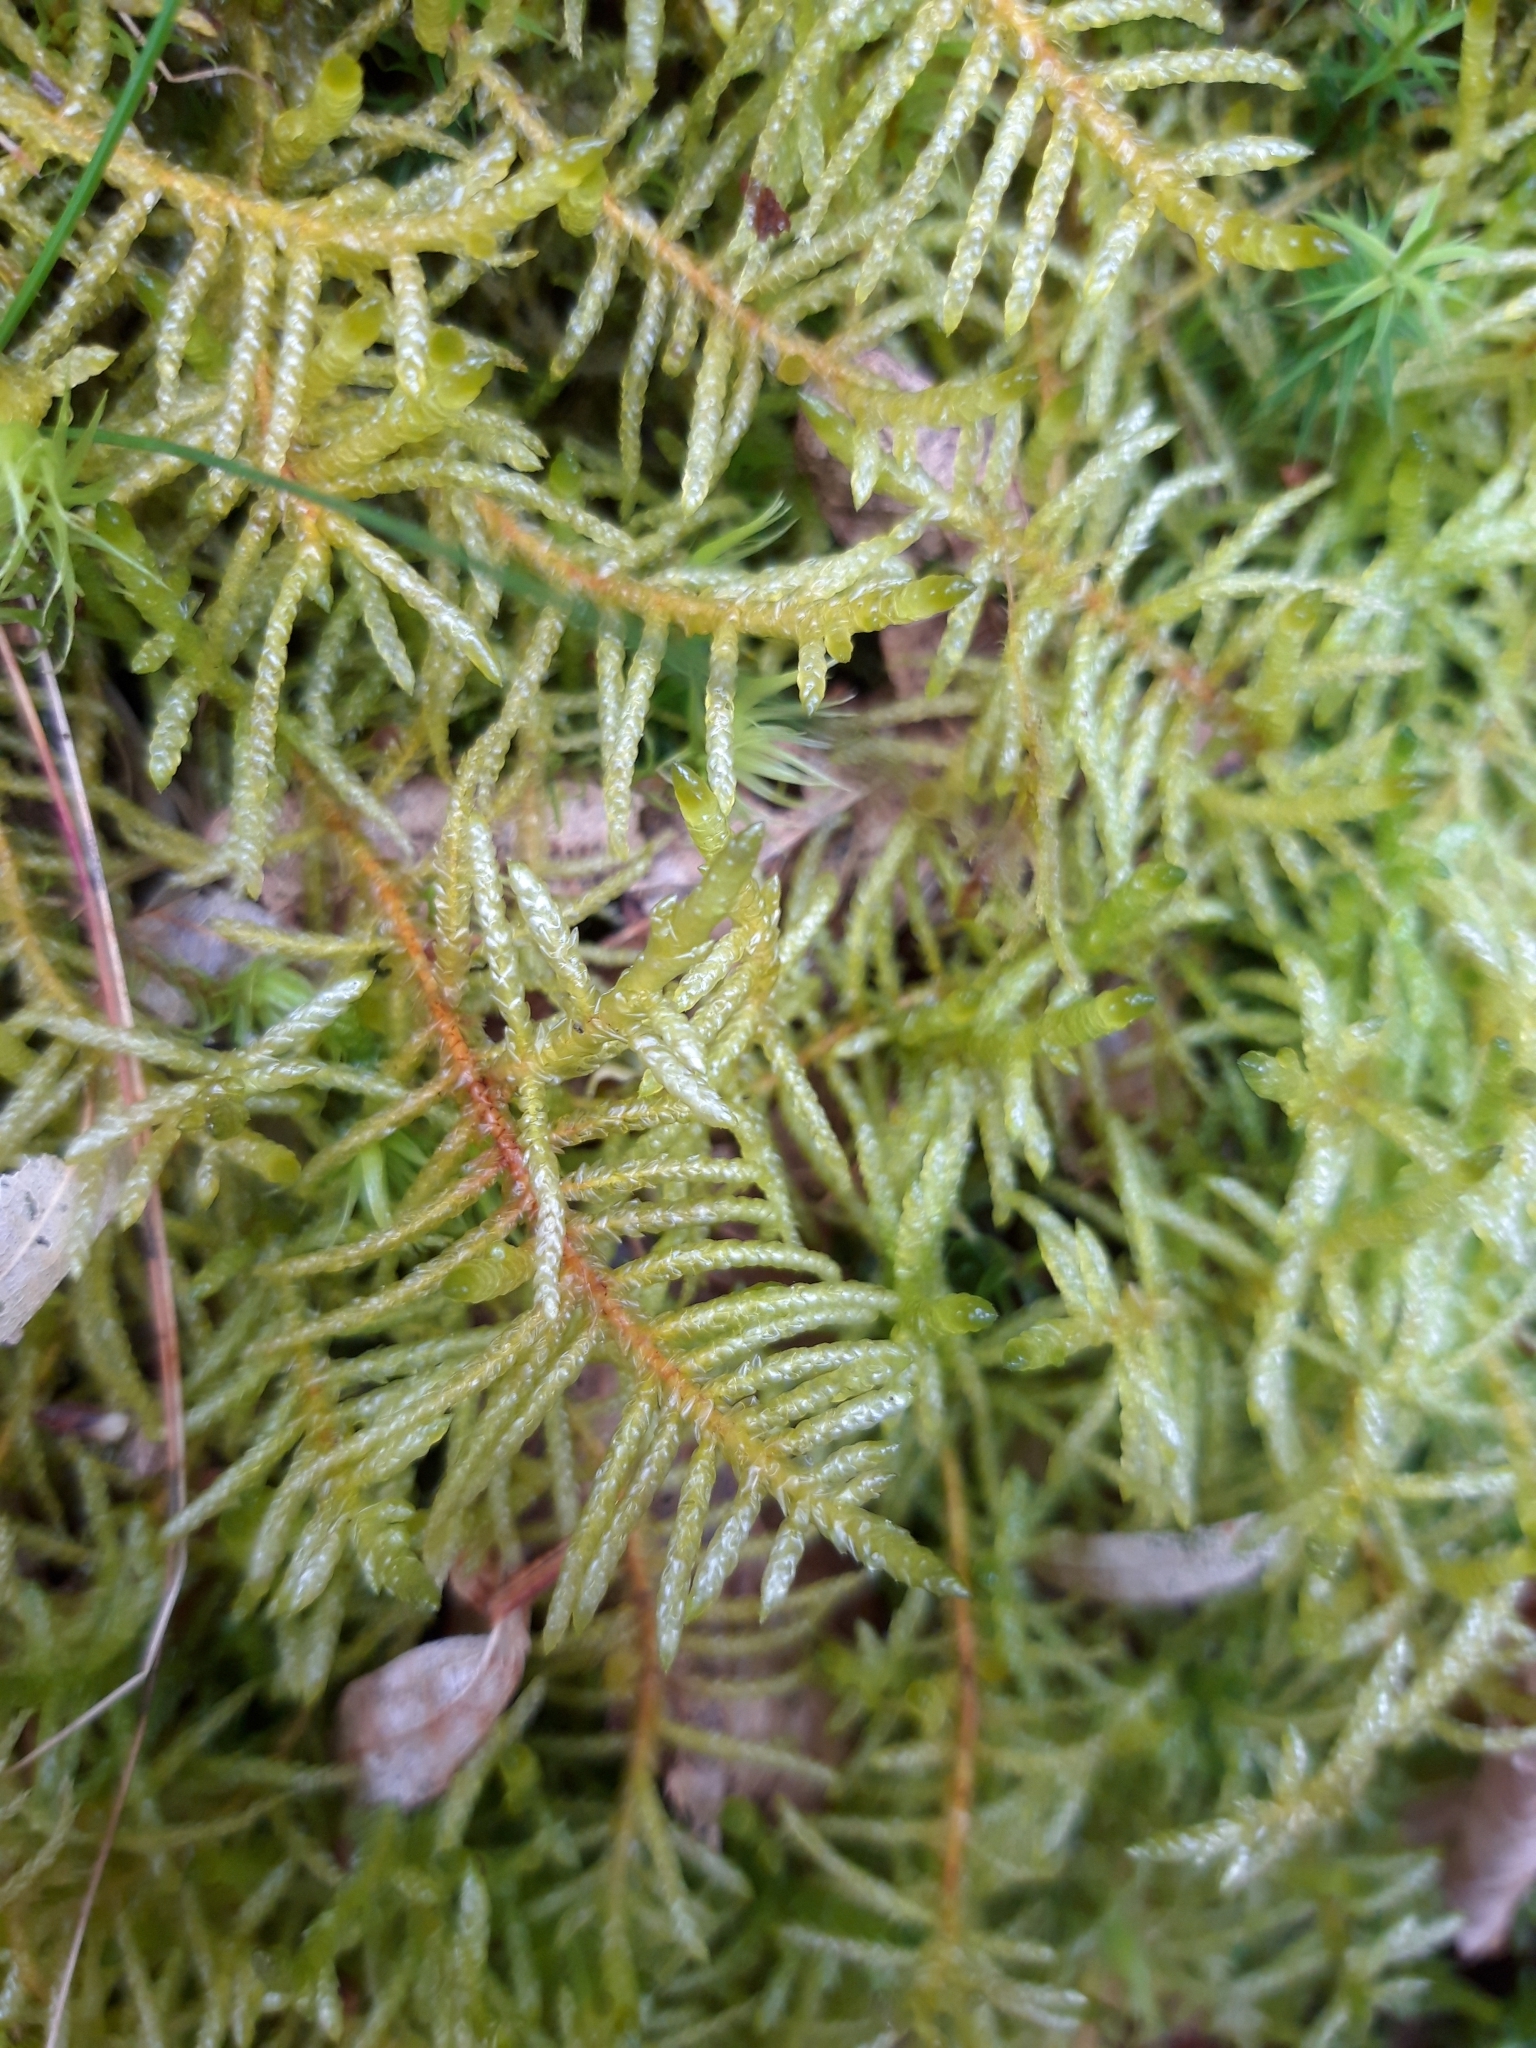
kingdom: Plantae
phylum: Bryophyta
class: Bryopsida
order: Hypnales
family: Brachytheciaceae
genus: Pseudoscleropodium
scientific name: Pseudoscleropodium purum
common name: Neat feather-moss
